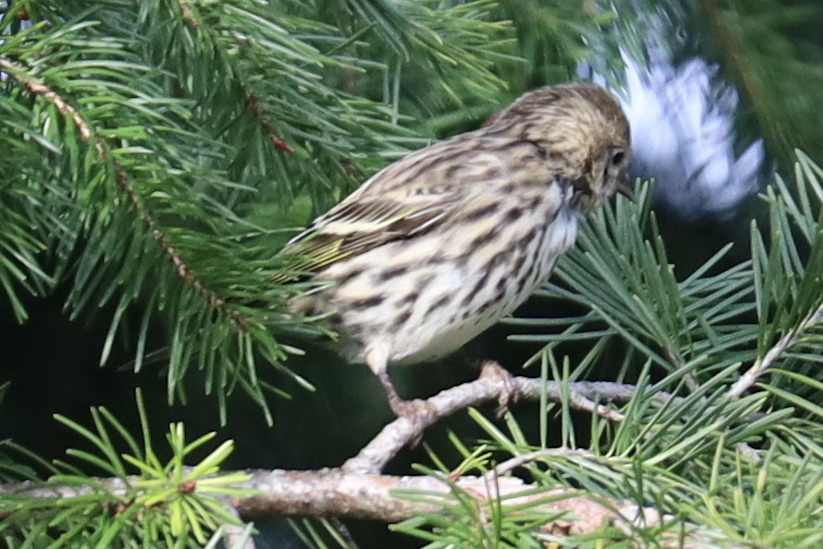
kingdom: Animalia
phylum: Chordata
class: Aves
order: Passeriformes
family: Fringillidae
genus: Spinus
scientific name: Spinus pinus
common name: Pine siskin
